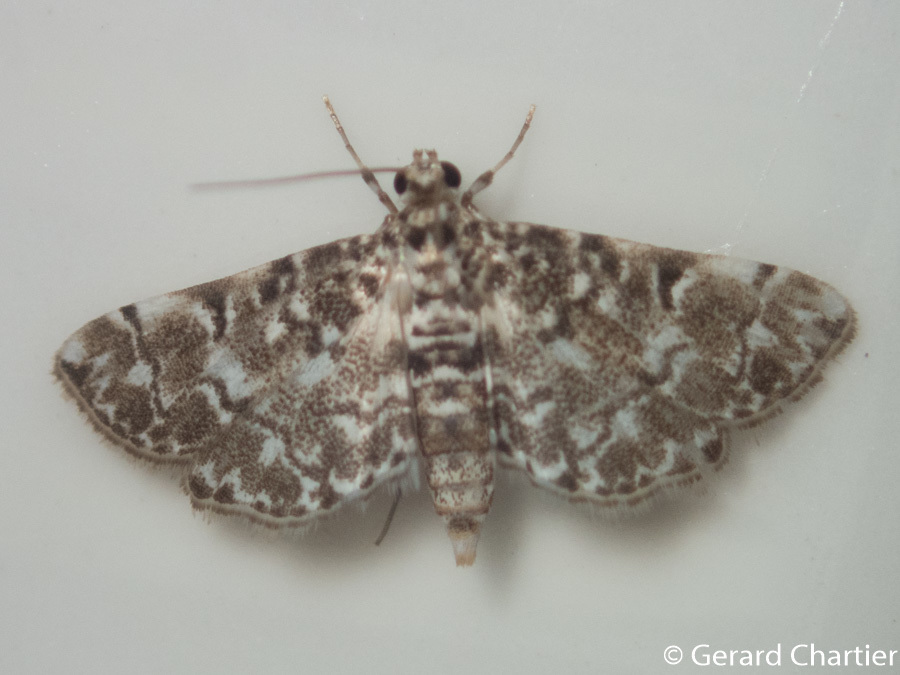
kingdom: Animalia
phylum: Arthropoda
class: Insecta
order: Lepidoptera
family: Crambidae
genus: Metoeca
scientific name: Metoeca foedalis
